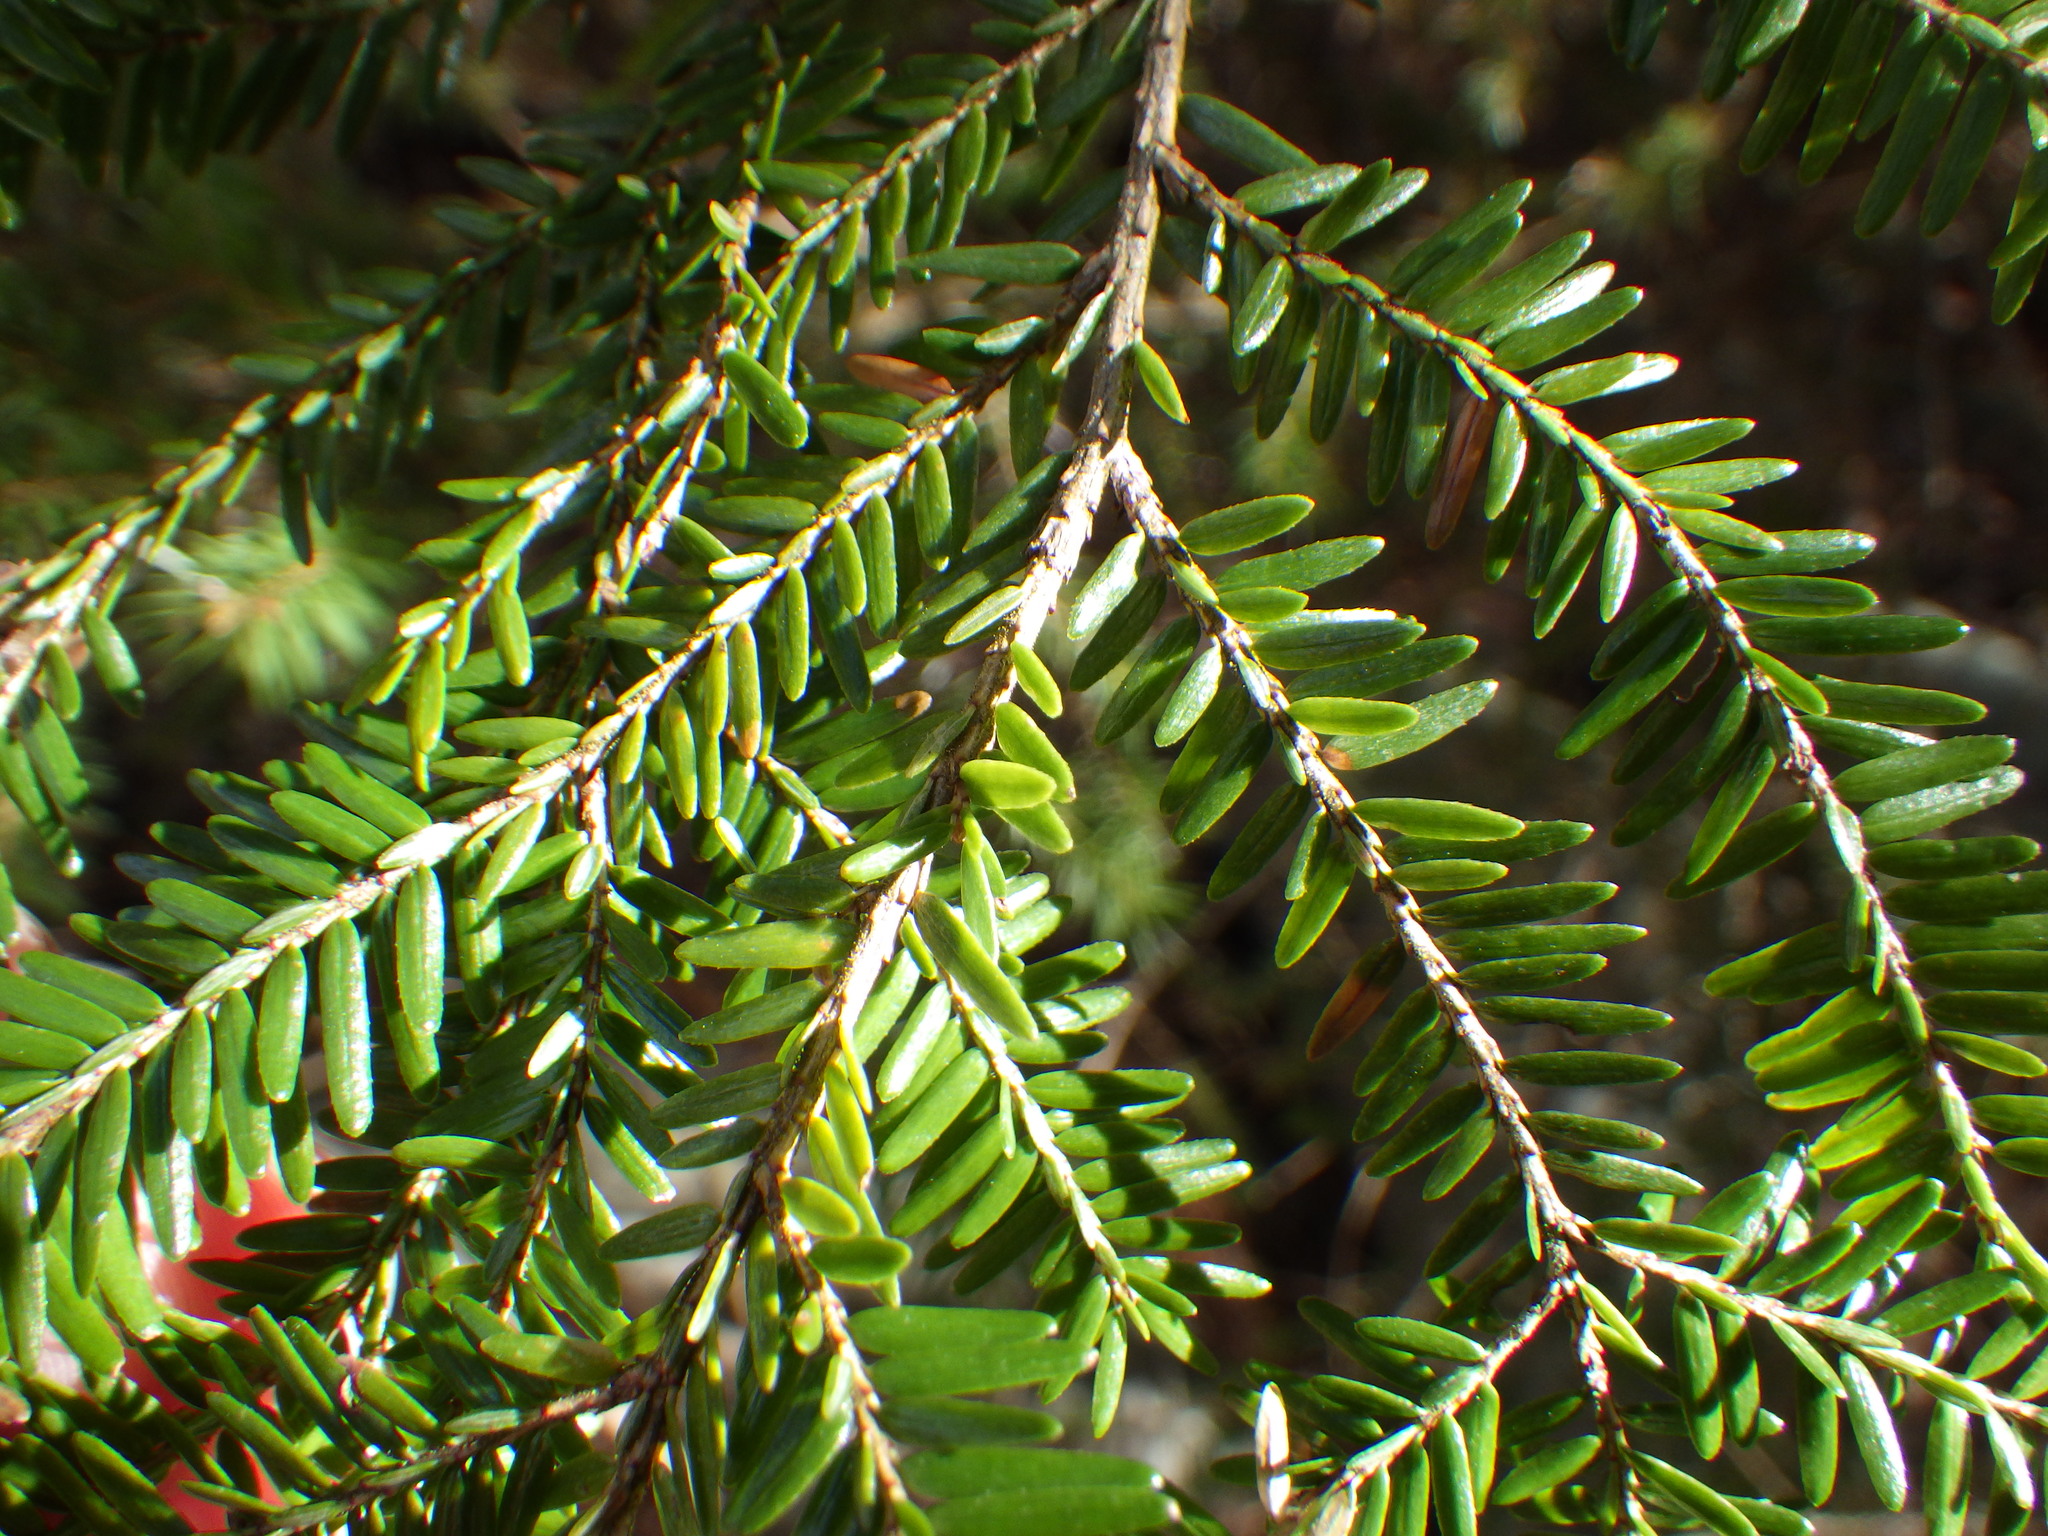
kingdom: Plantae
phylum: Tracheophyta
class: Pinopsida
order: Pinales
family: Pinaceae
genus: Tsuga
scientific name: Tsuga canadensis
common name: Eastern hemlock
